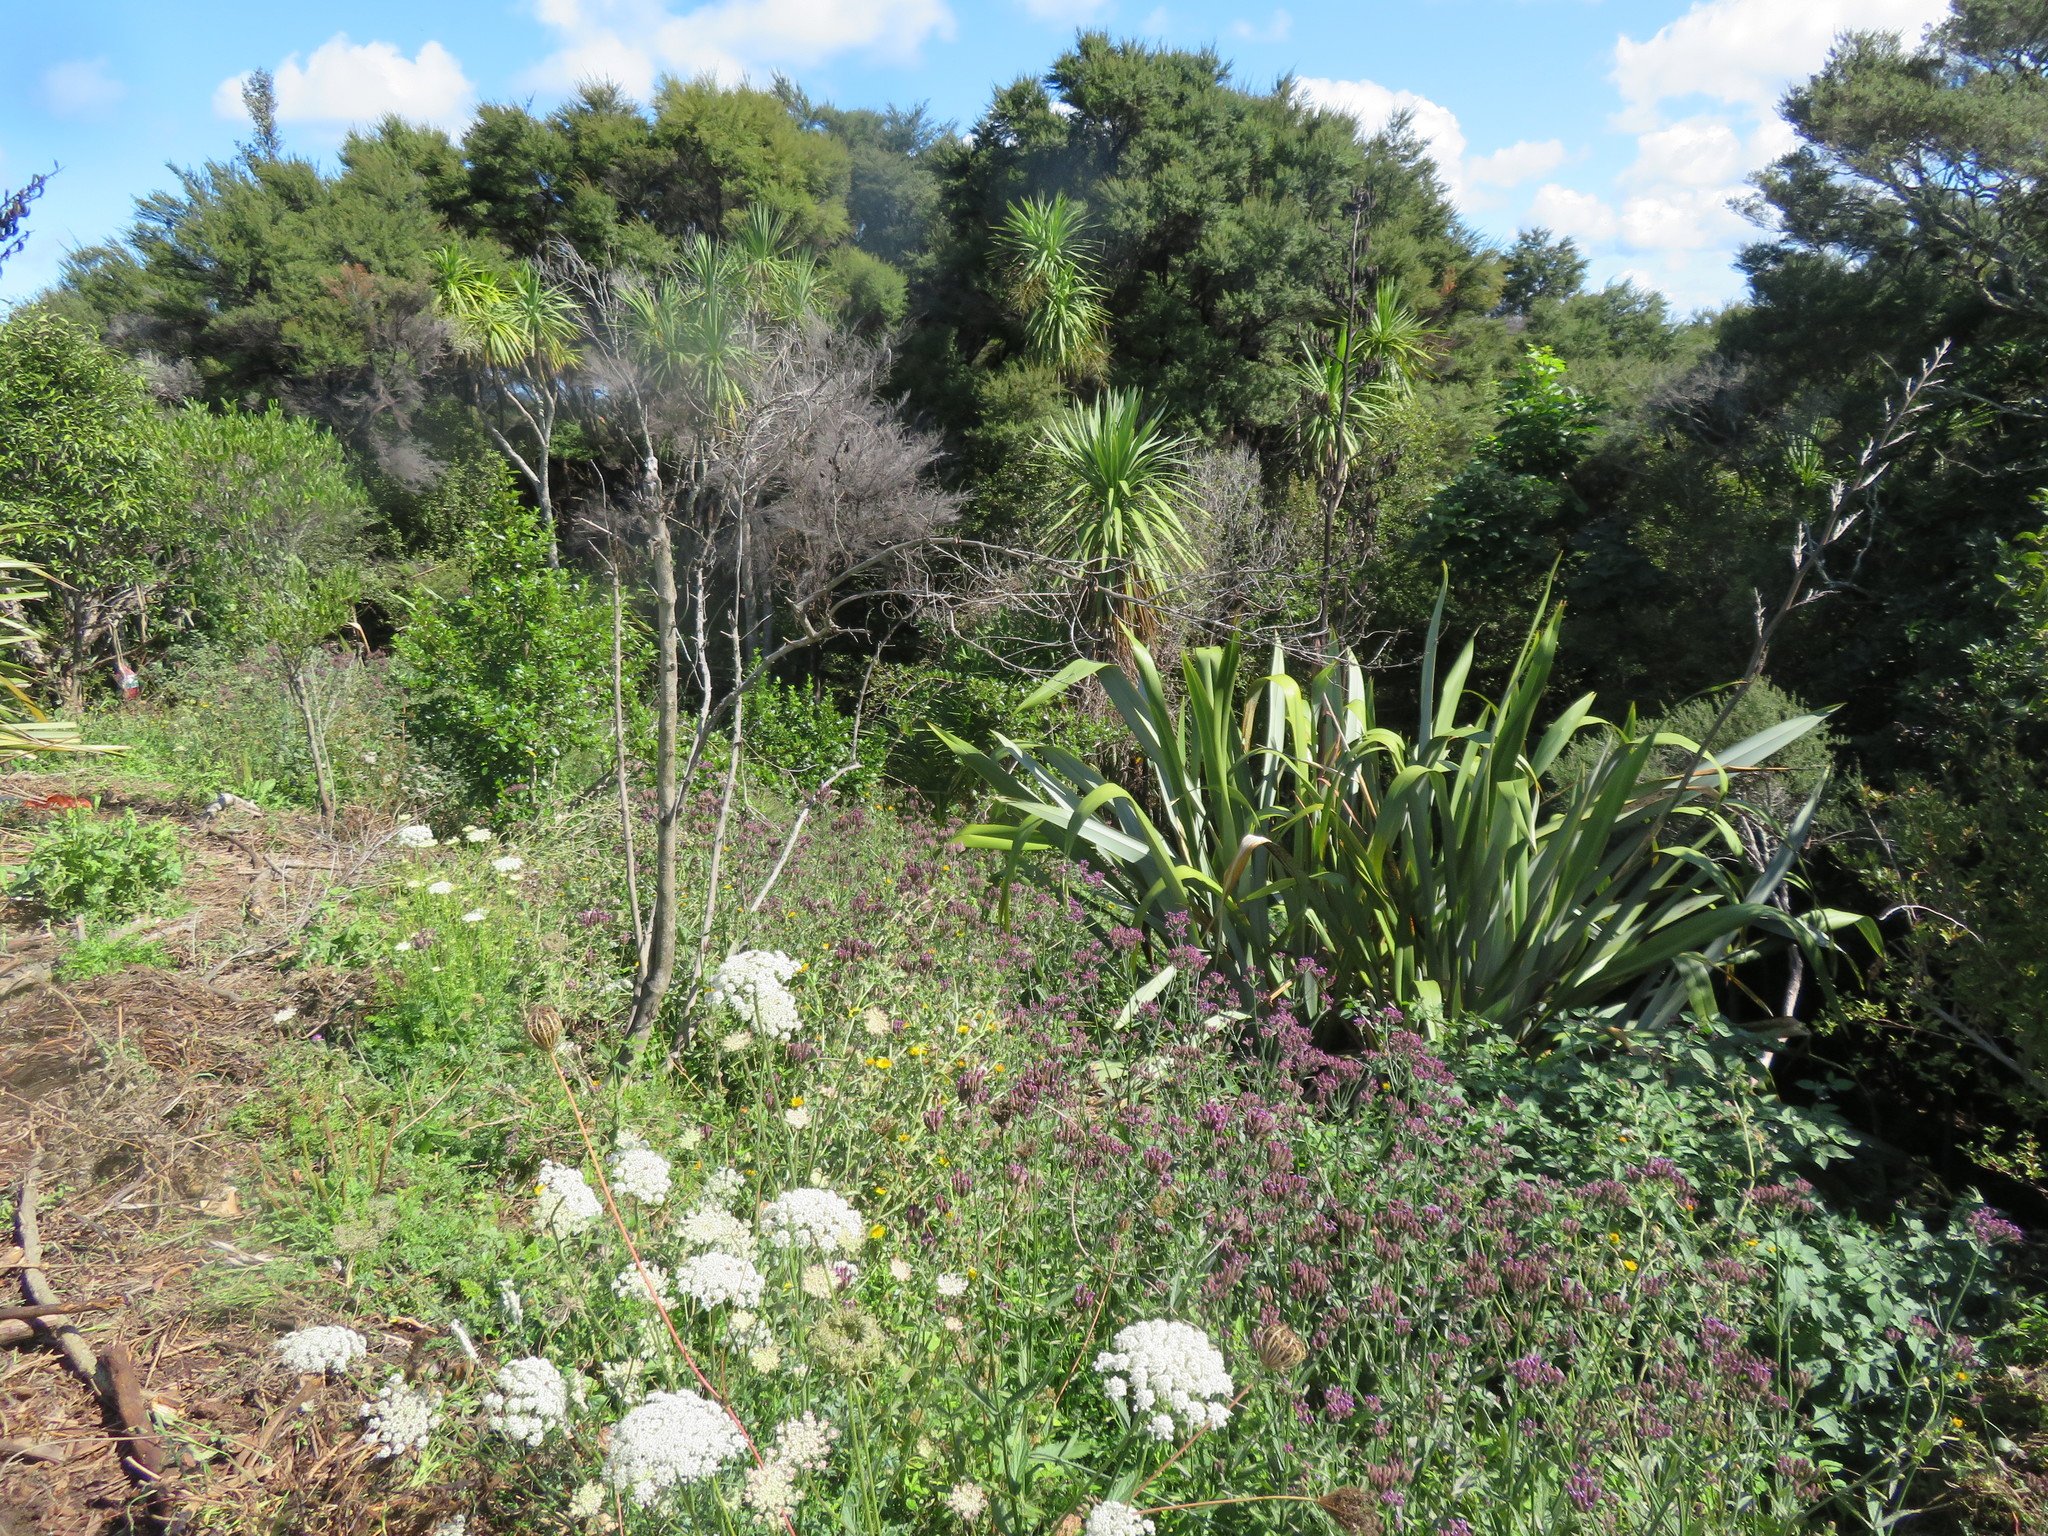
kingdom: Plantae
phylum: Tracheophyta
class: Magnoliopsida
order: Apiales
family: Apiaceae
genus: Daucus
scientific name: Daucus carota
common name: Wild carrot
